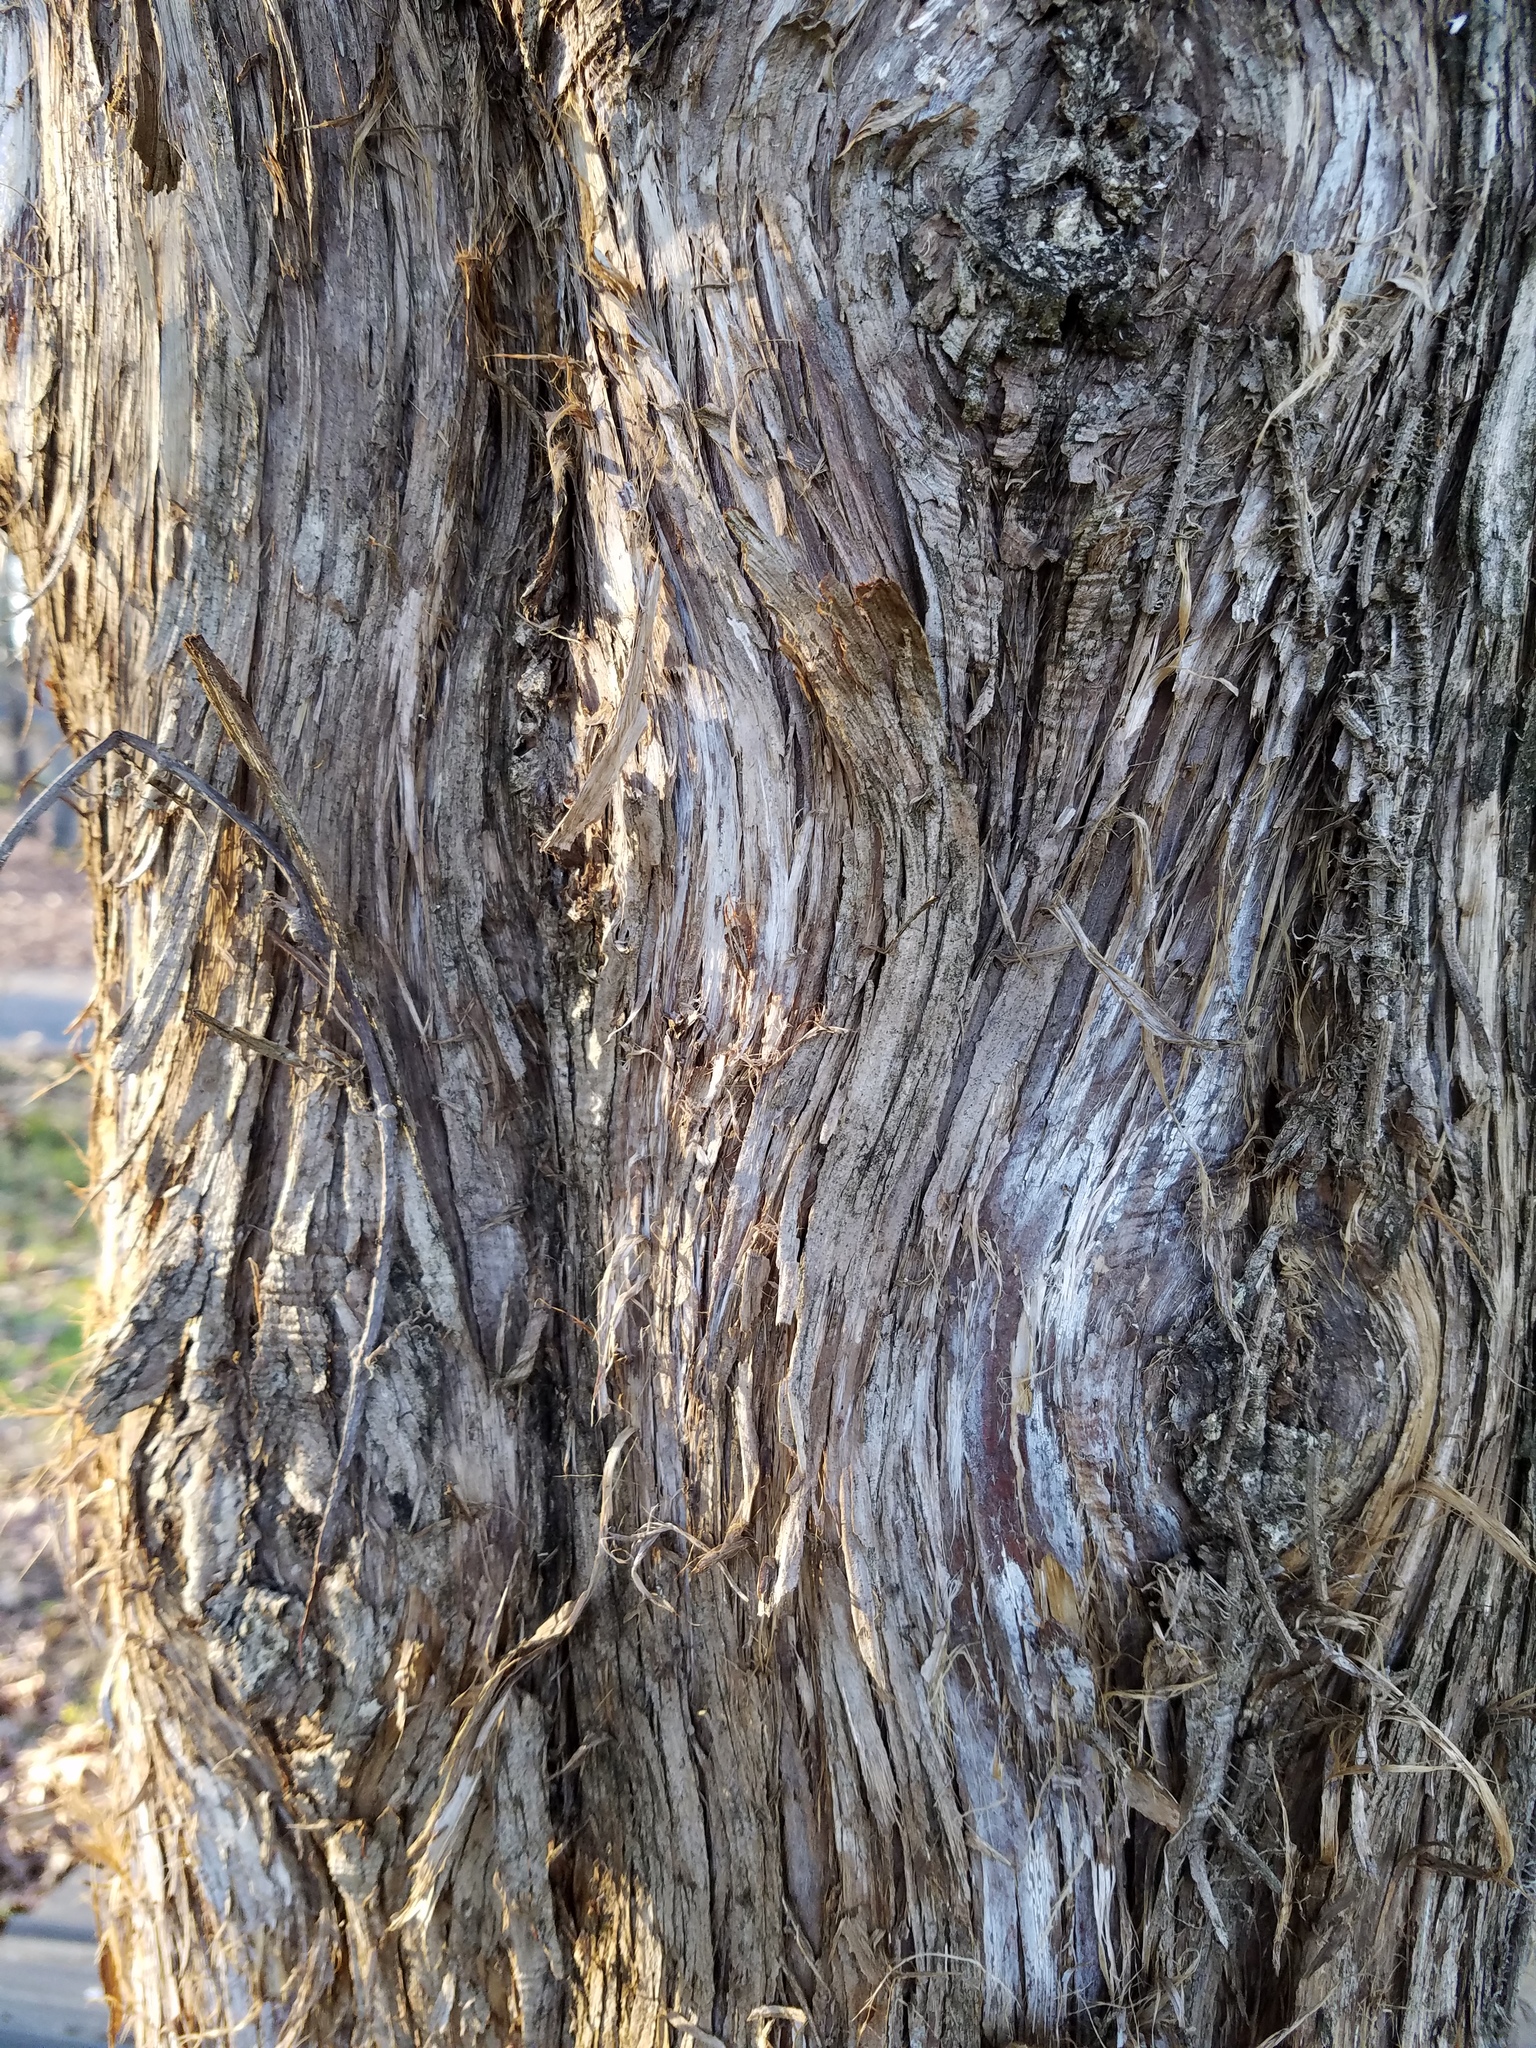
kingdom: Plantae
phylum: Tracheophyta
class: Pinopsida
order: Pinales
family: Cupressaceae
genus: Juniperus
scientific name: Juniperus virginiana
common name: Red juniper
